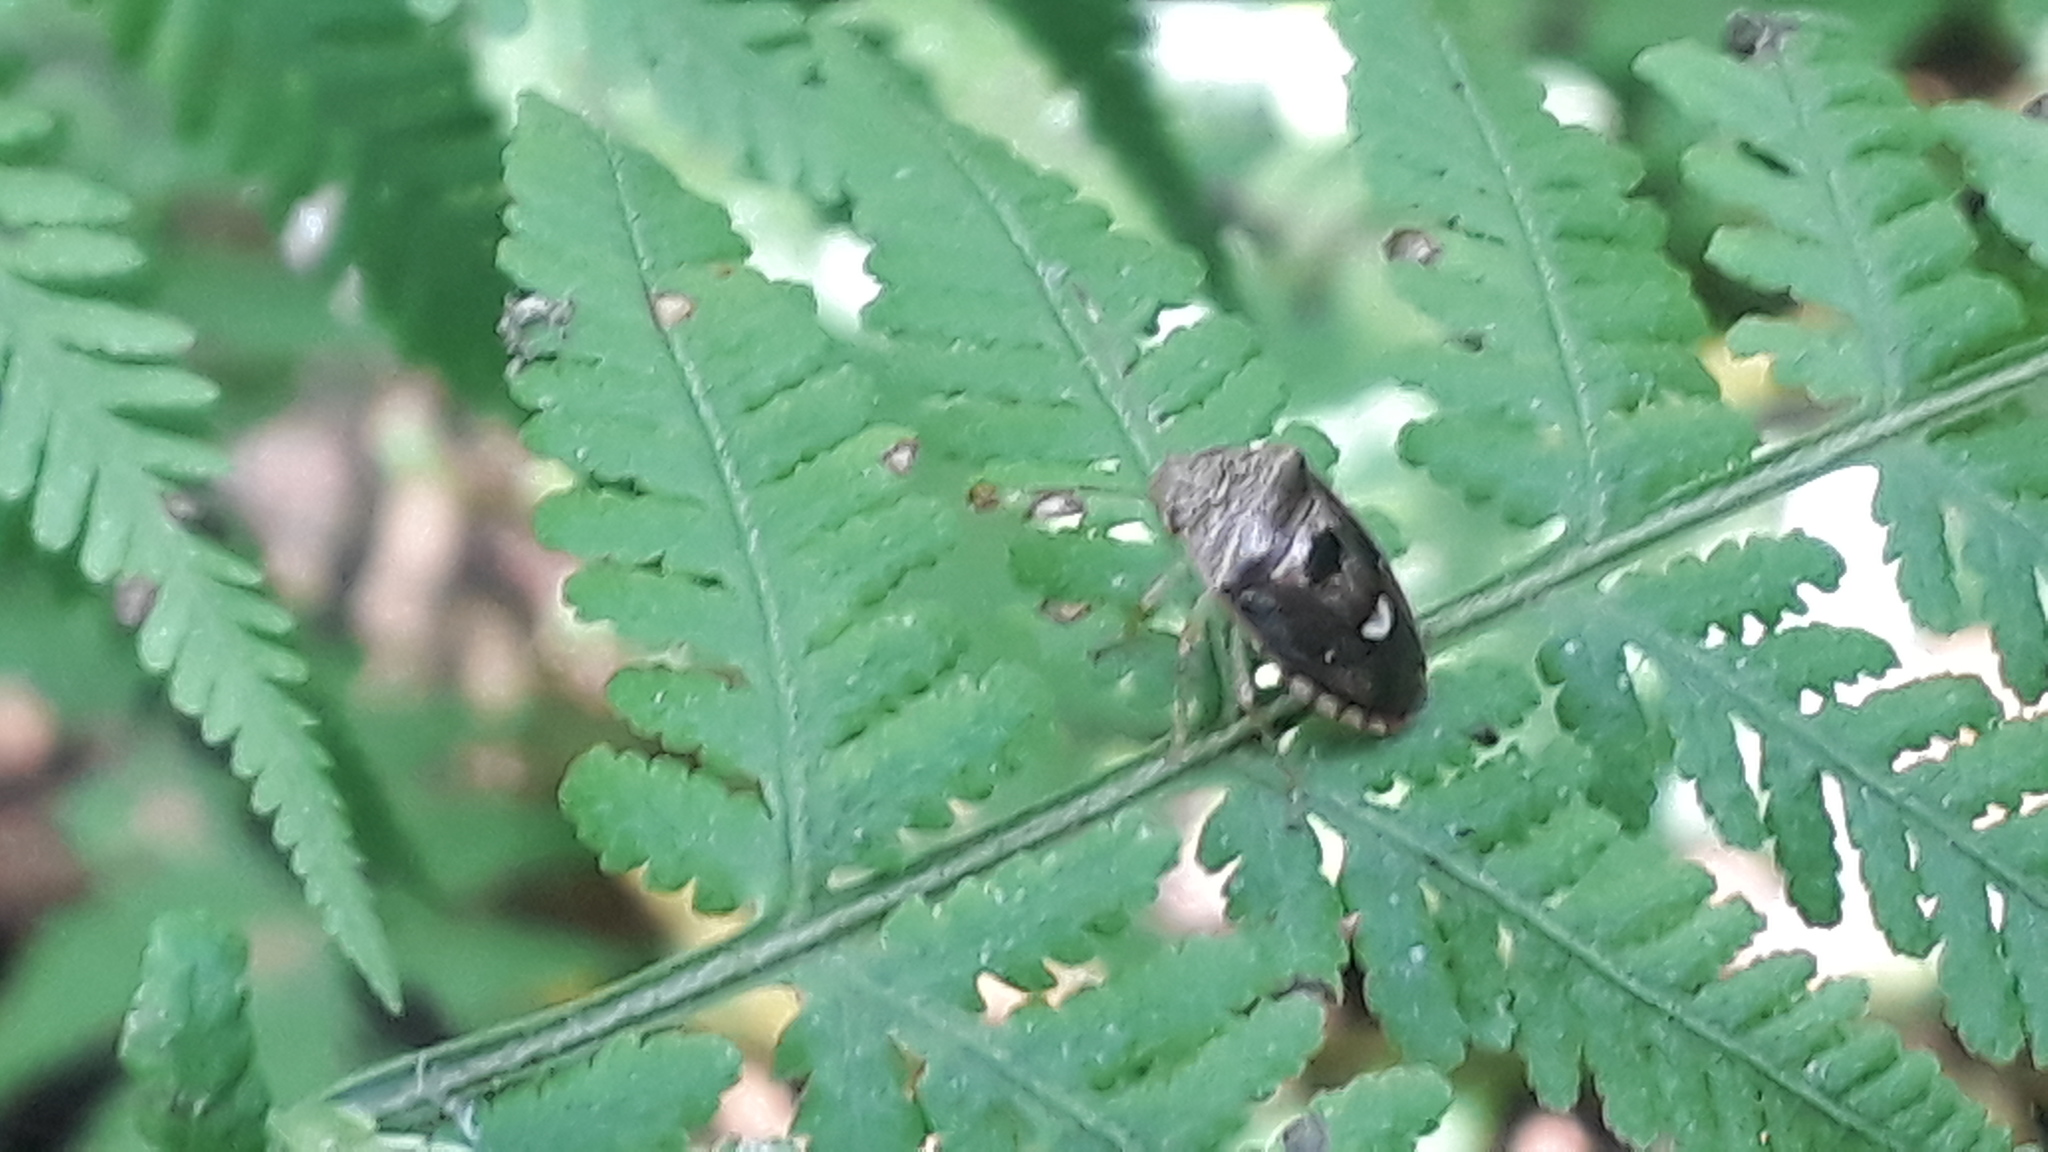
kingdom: Animalia
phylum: Arthropoda
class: Insecta
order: Hemiptera
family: Pentatomidae
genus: Alveostethus
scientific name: Alveostethus politus
